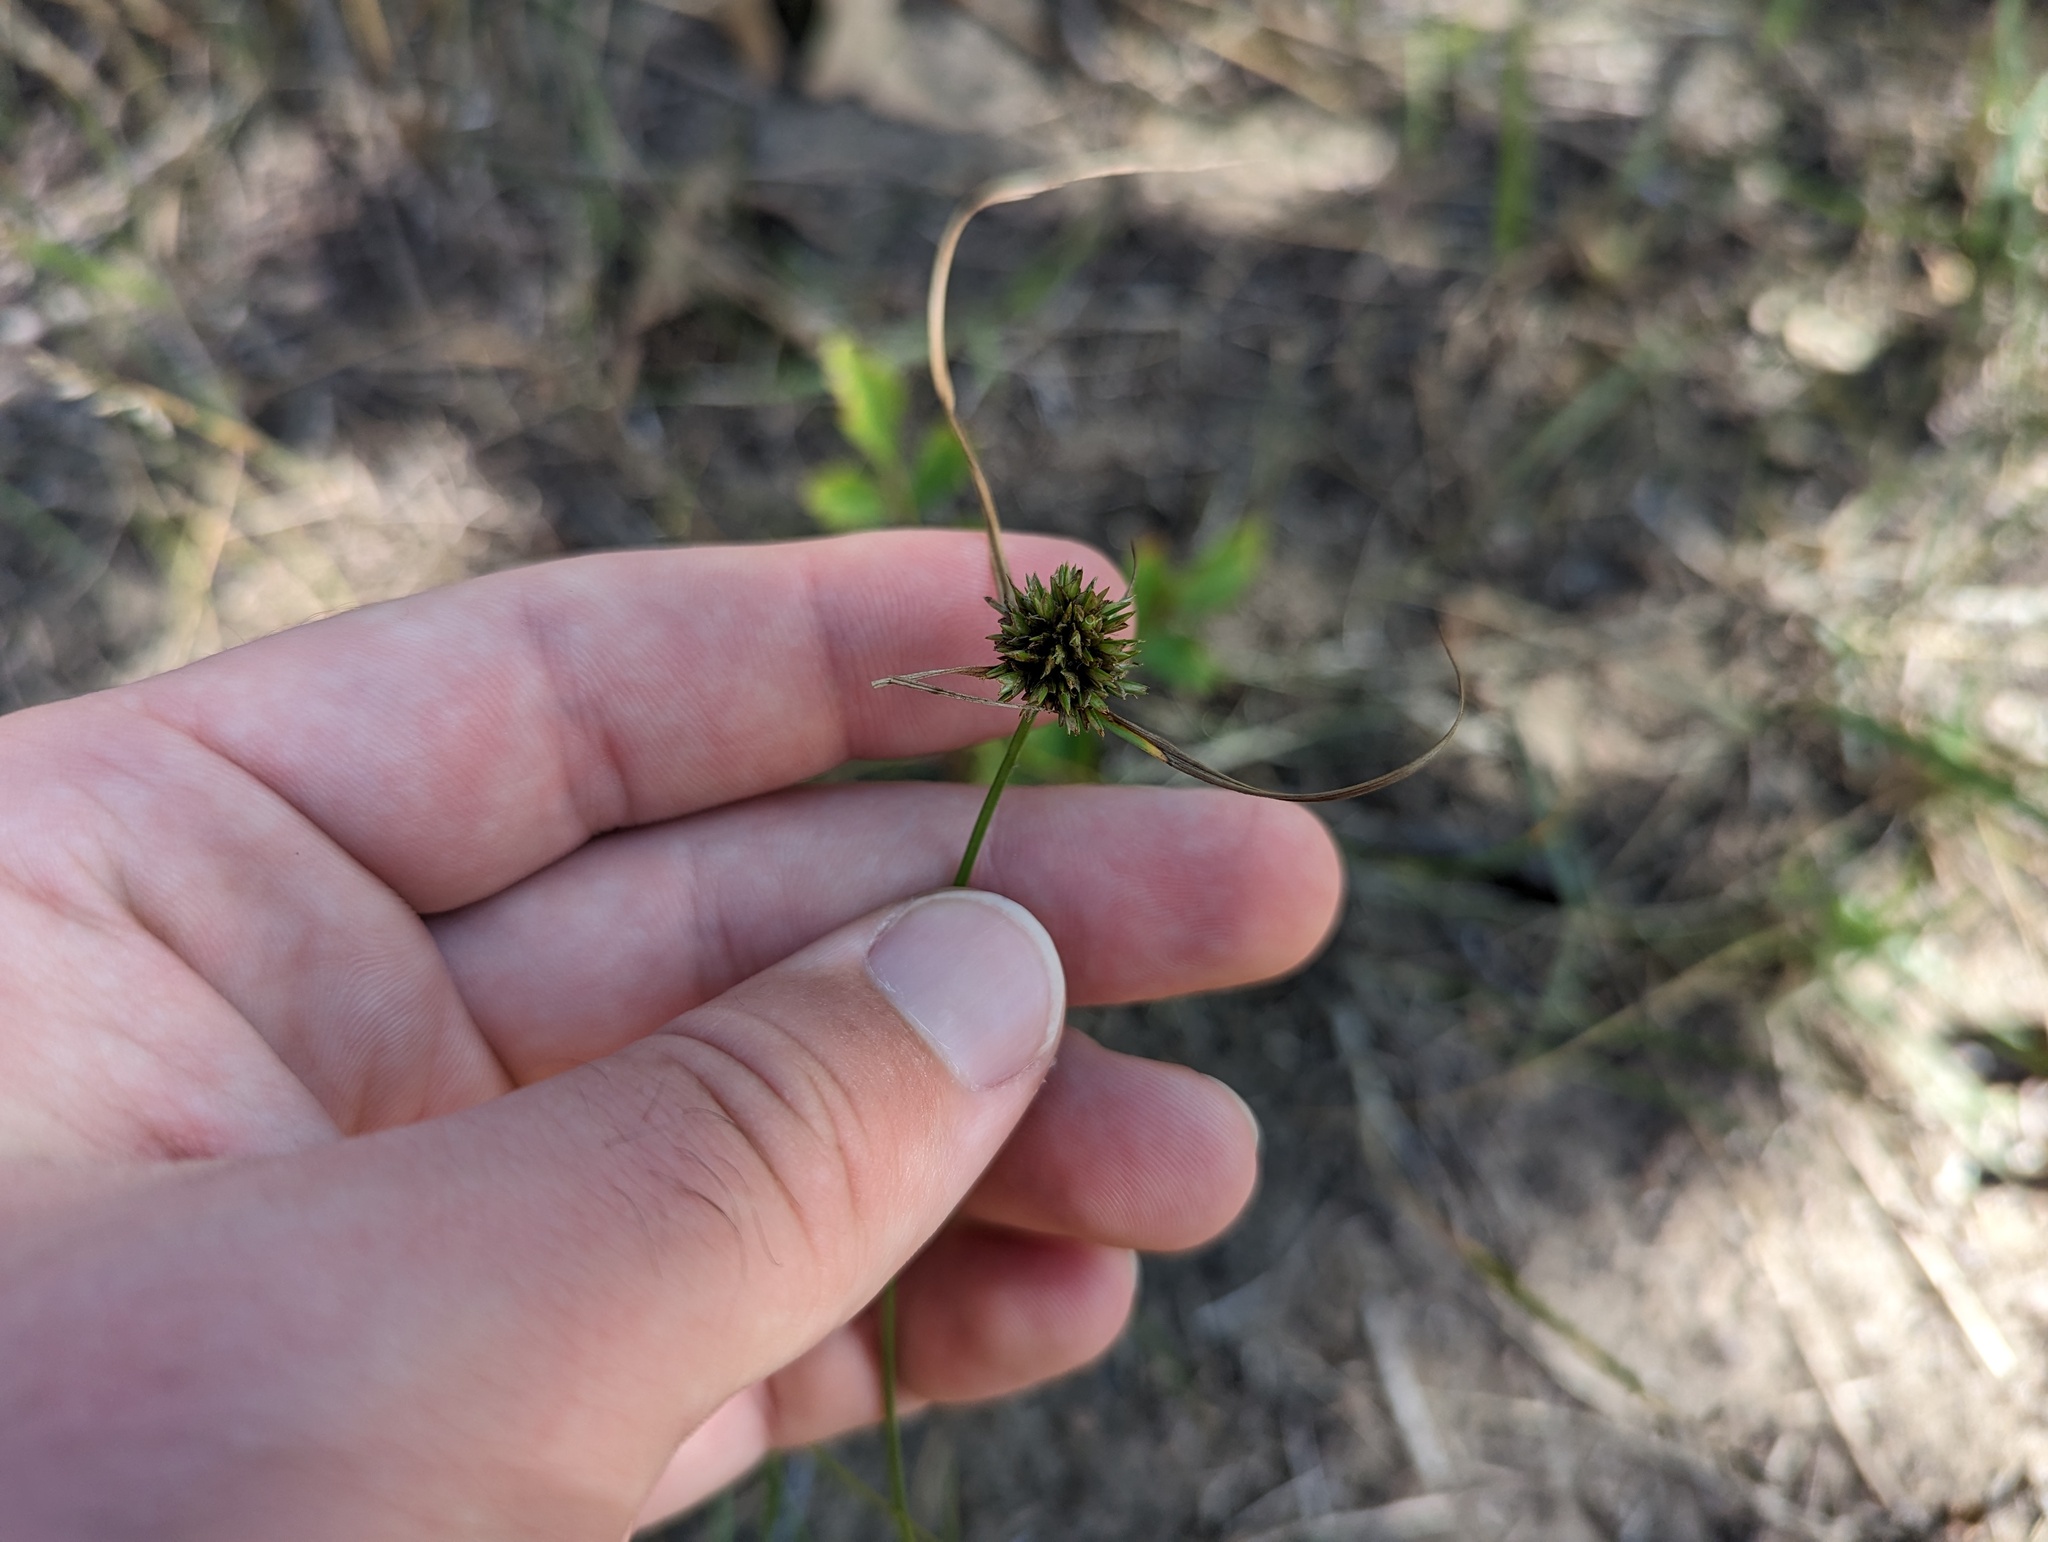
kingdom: Plantae
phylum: Tracheophyta
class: Liliopsida
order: Poales
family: Cyperaceae
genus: Cyperus
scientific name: Cyperus lupulinus
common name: Great plains flatsedge
